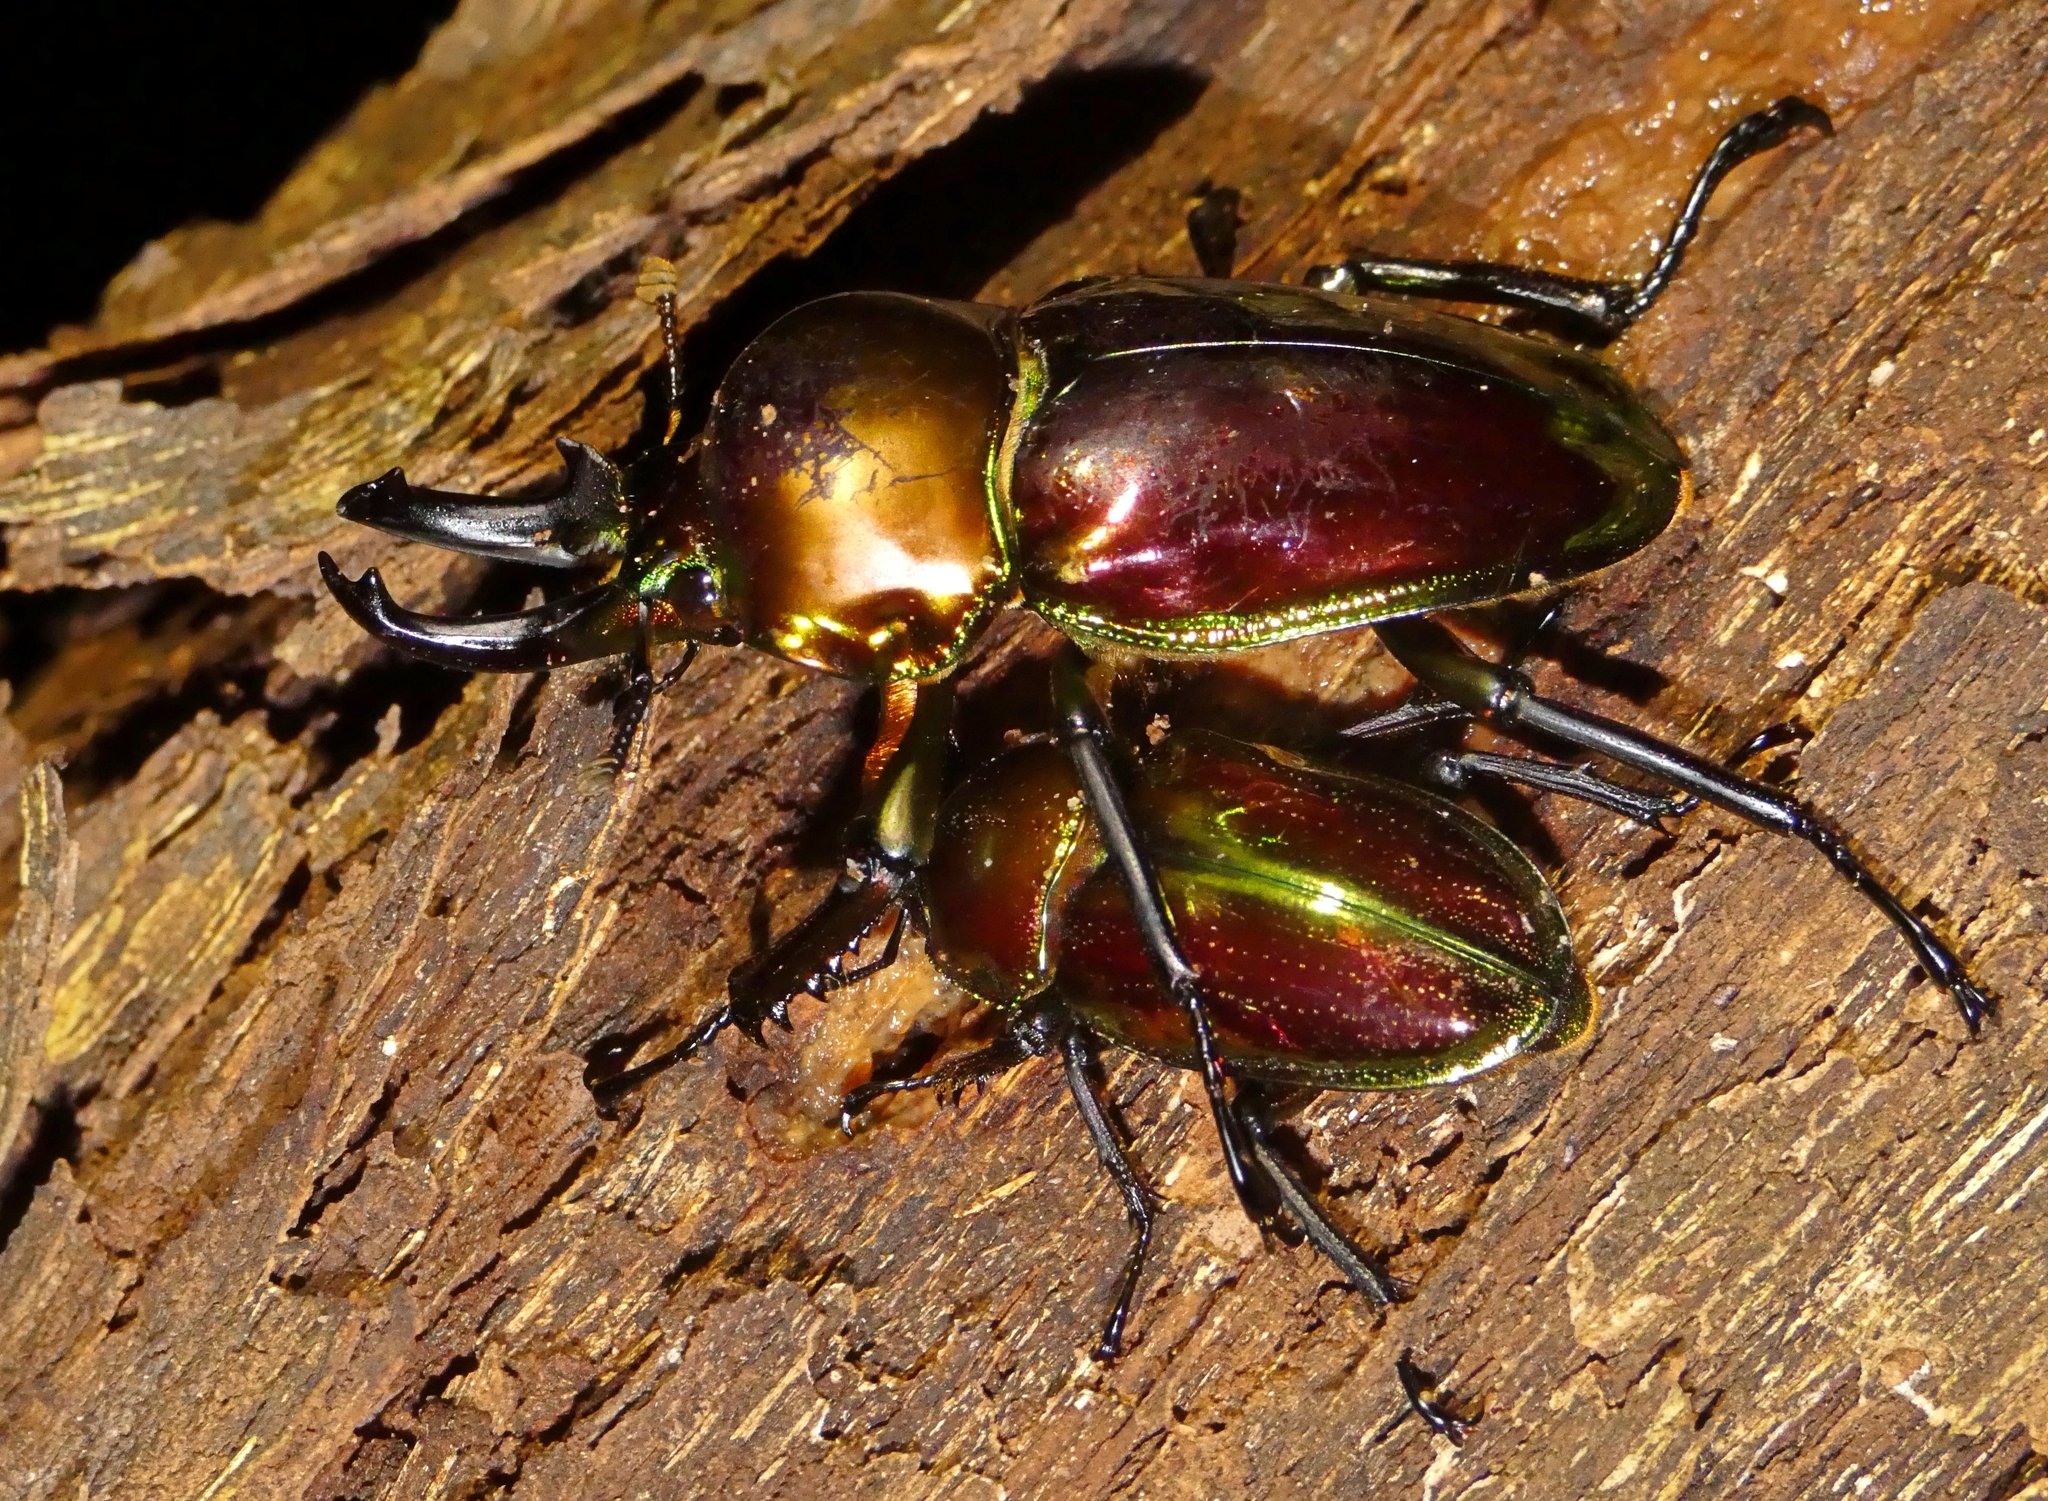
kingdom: Animalia
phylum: Arthropoda
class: Insecta
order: Coleoptera
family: Lucanidae
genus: Phalacrognathus
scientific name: Phalacrognathus muelleri
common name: King stag beetle
